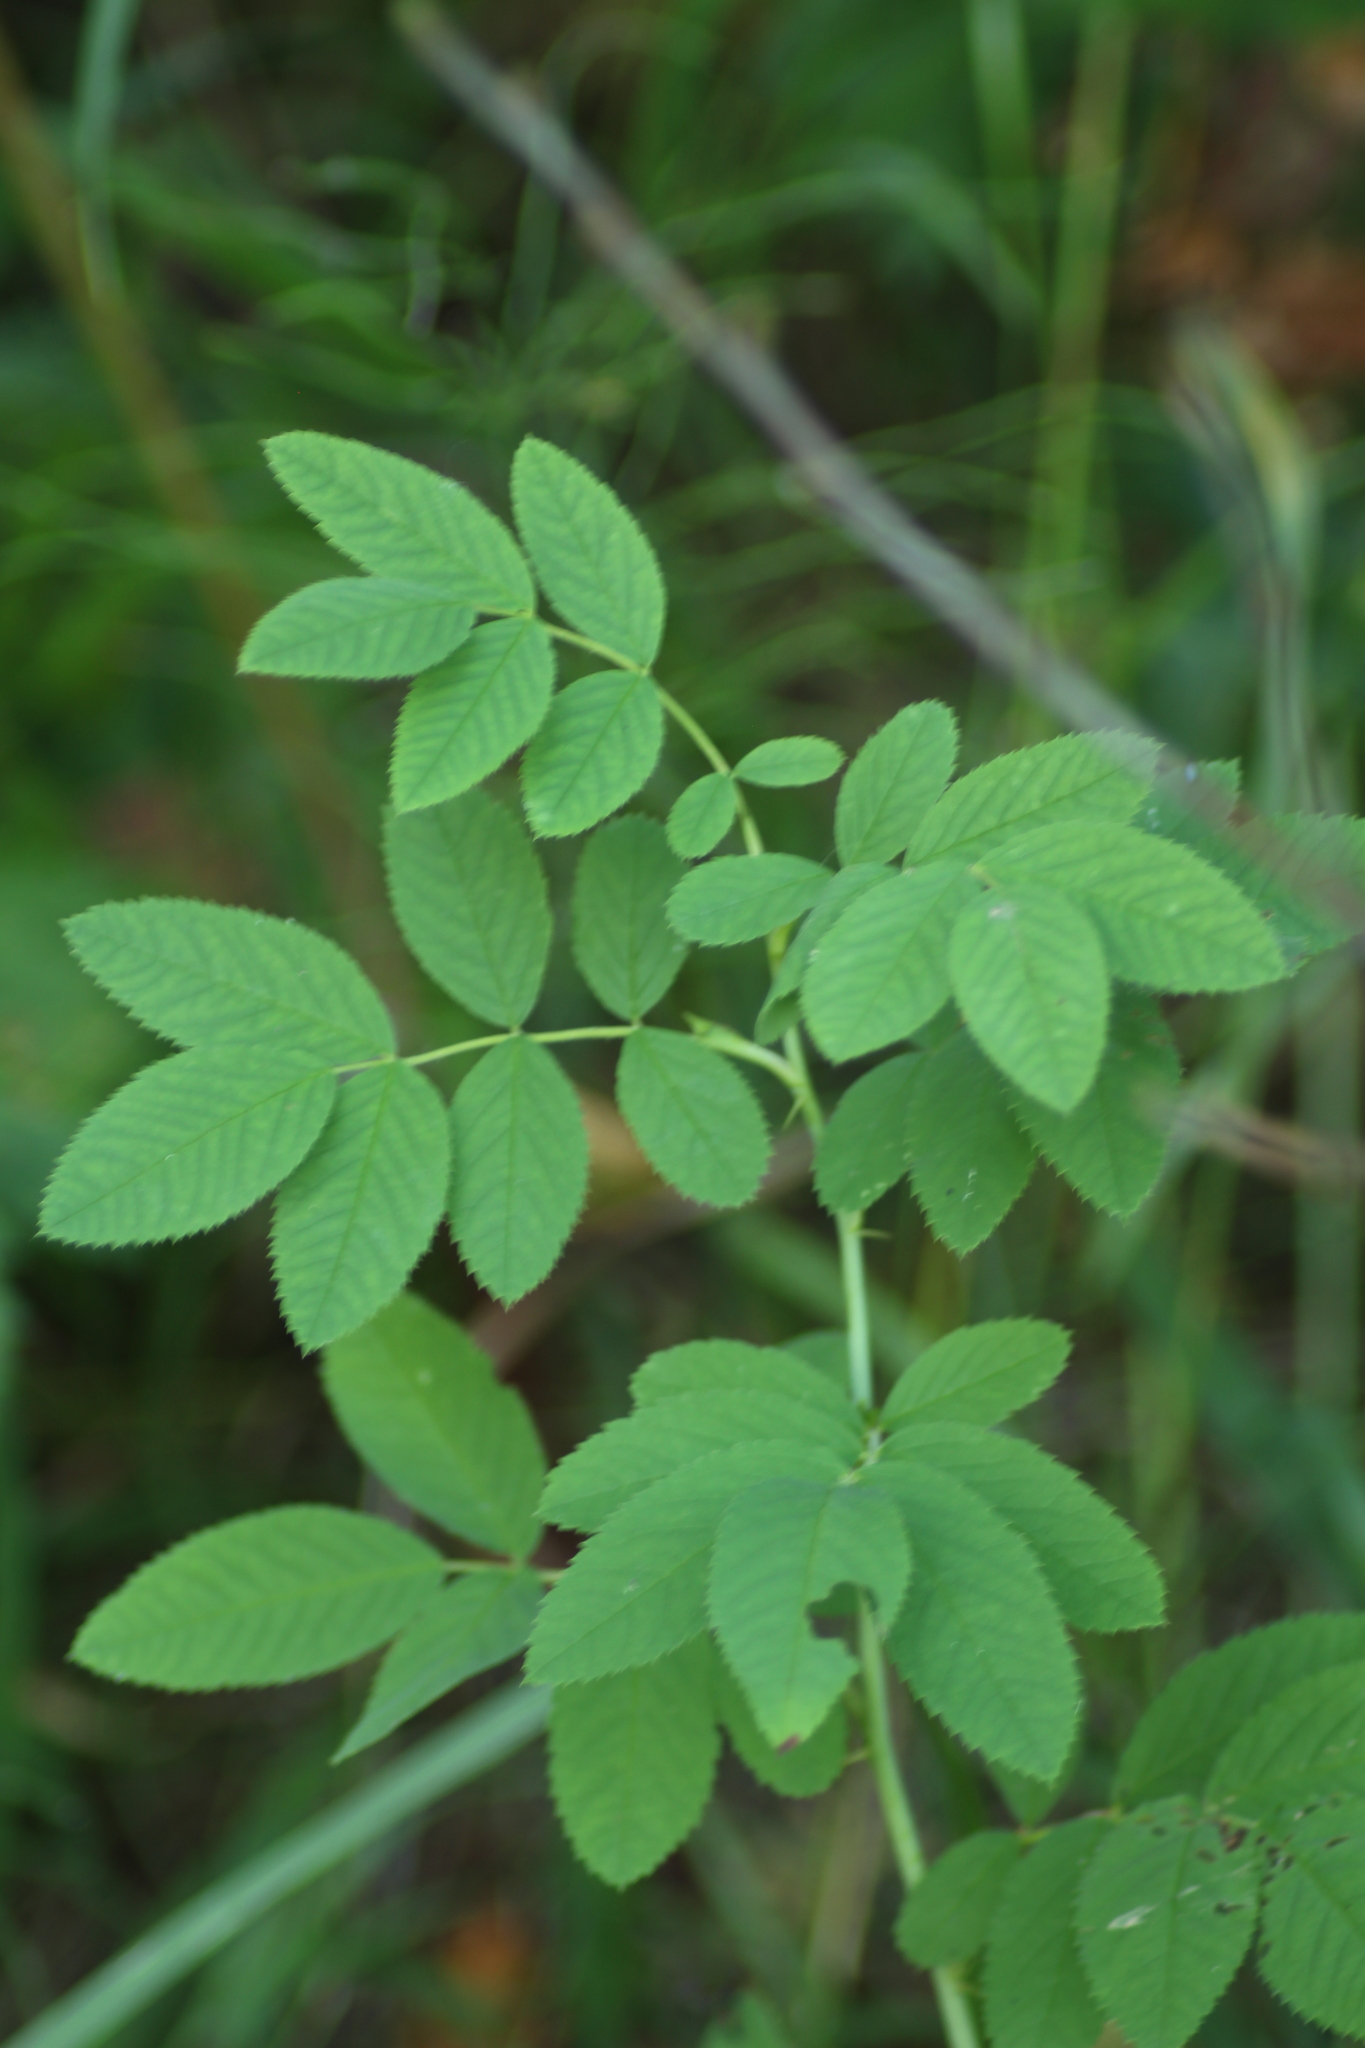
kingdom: Plantae
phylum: Tracheophyta
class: Magnoliopsida
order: Rosales
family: Rosaceae
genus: Rosa
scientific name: Rosa majalis
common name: Cinnamon rose
